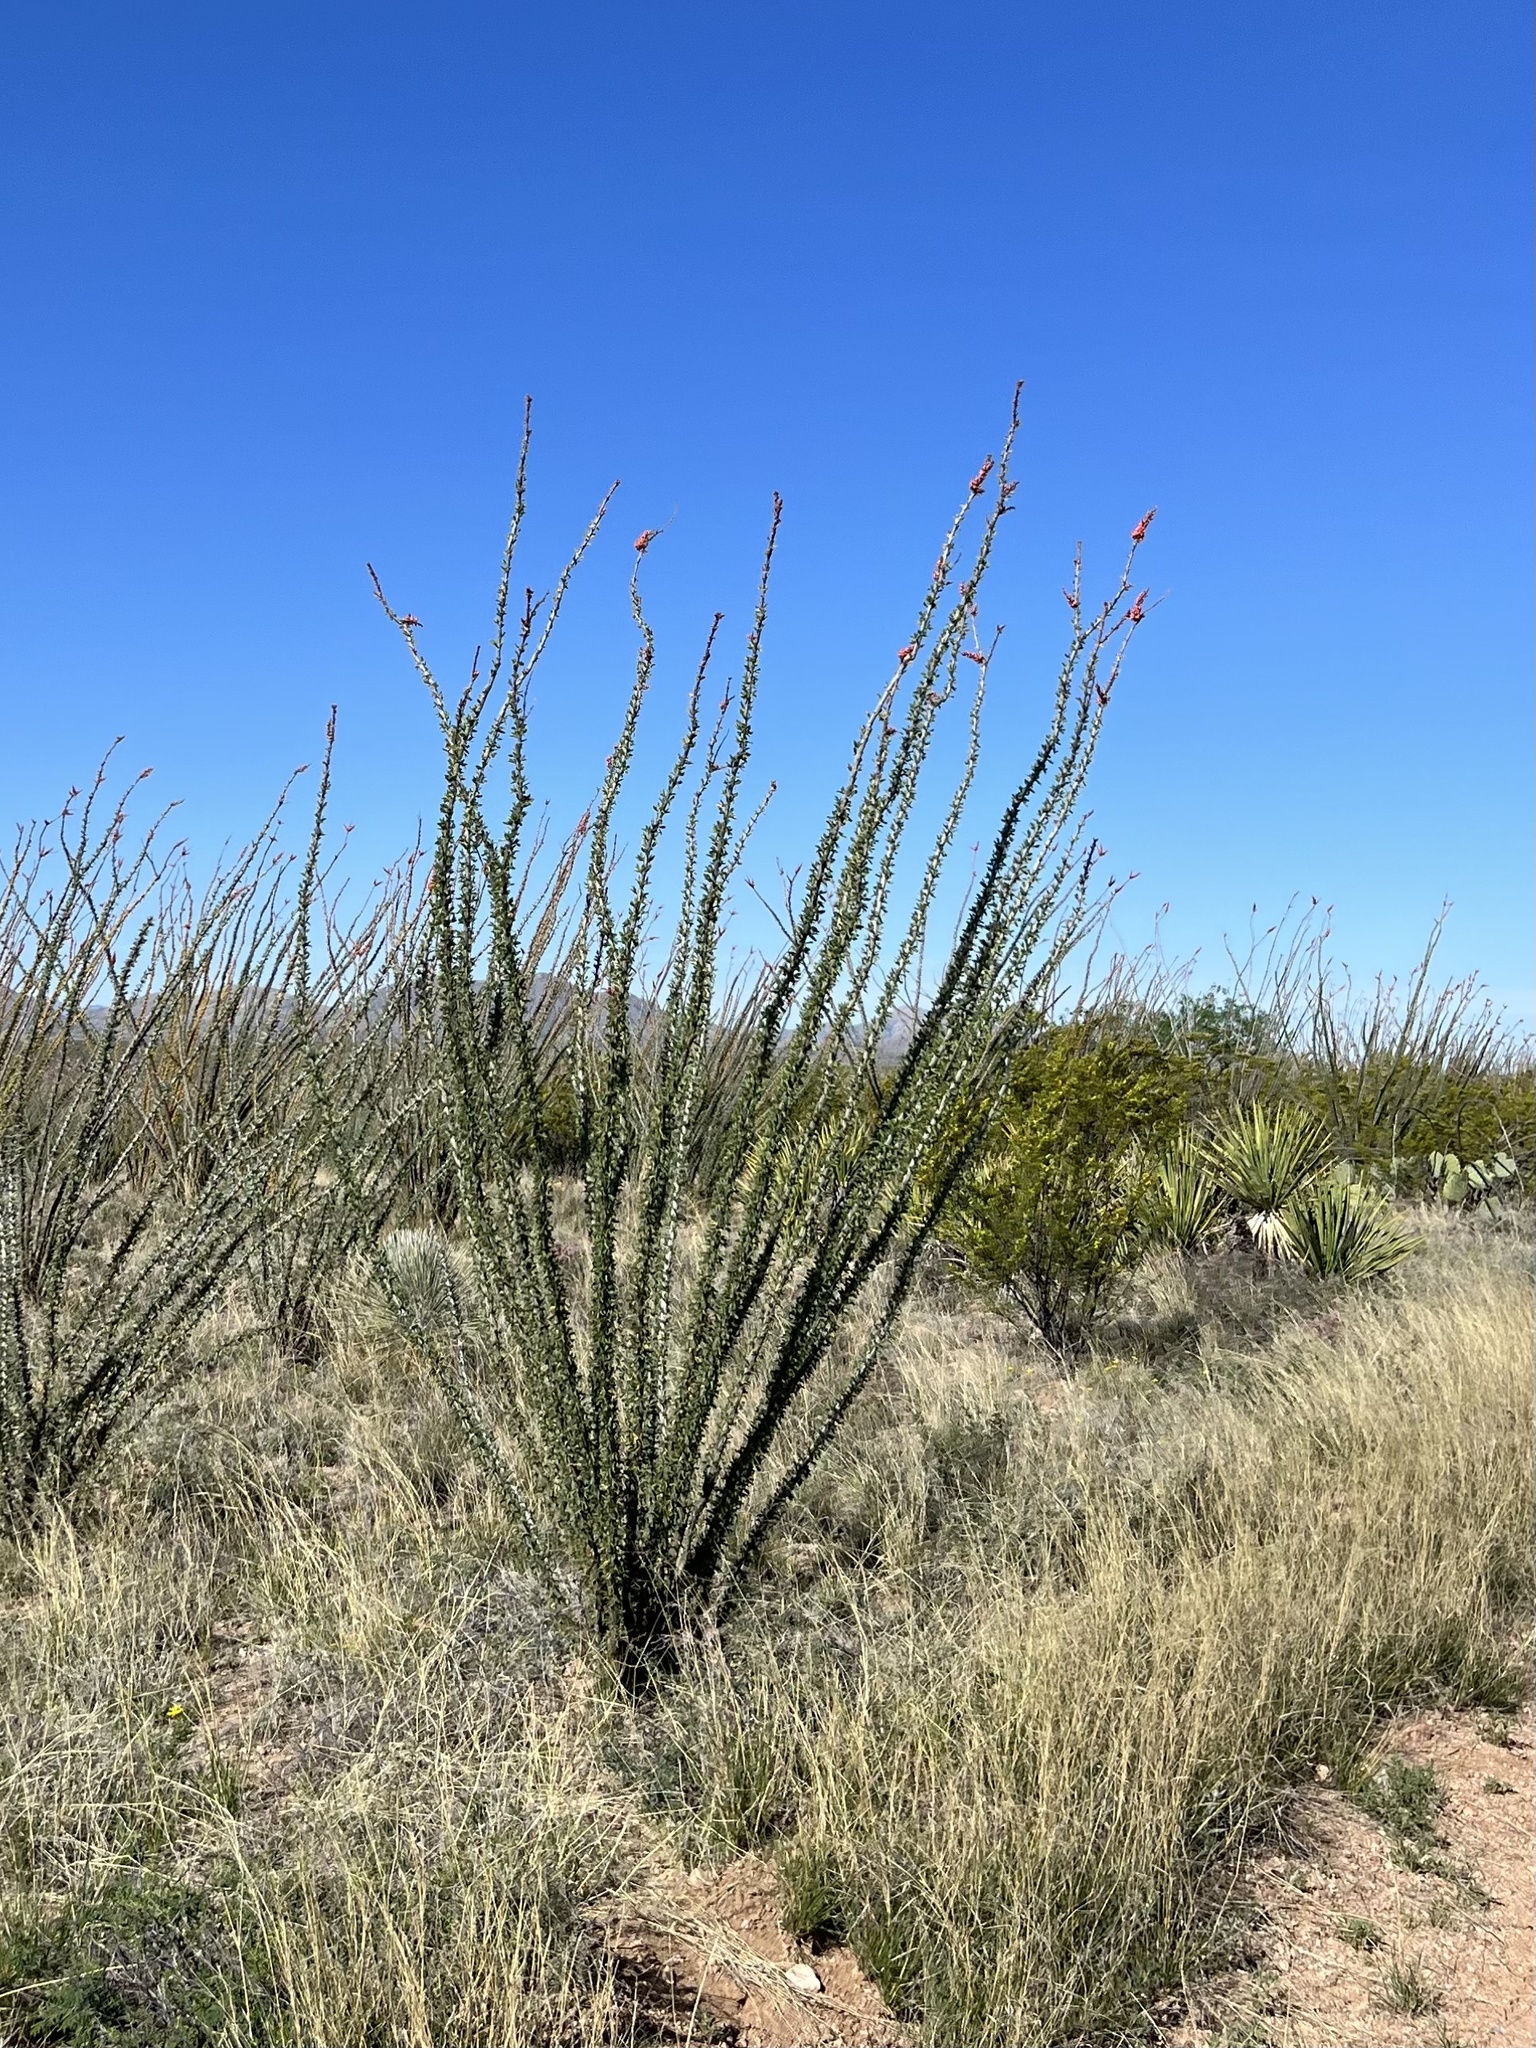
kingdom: Plantae
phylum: Tracheophyta
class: Magnoliopsida
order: Ericales
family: Fouquieriaceae
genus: Fouquieria
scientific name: Fouquieria splendens
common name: Vine-cactus
